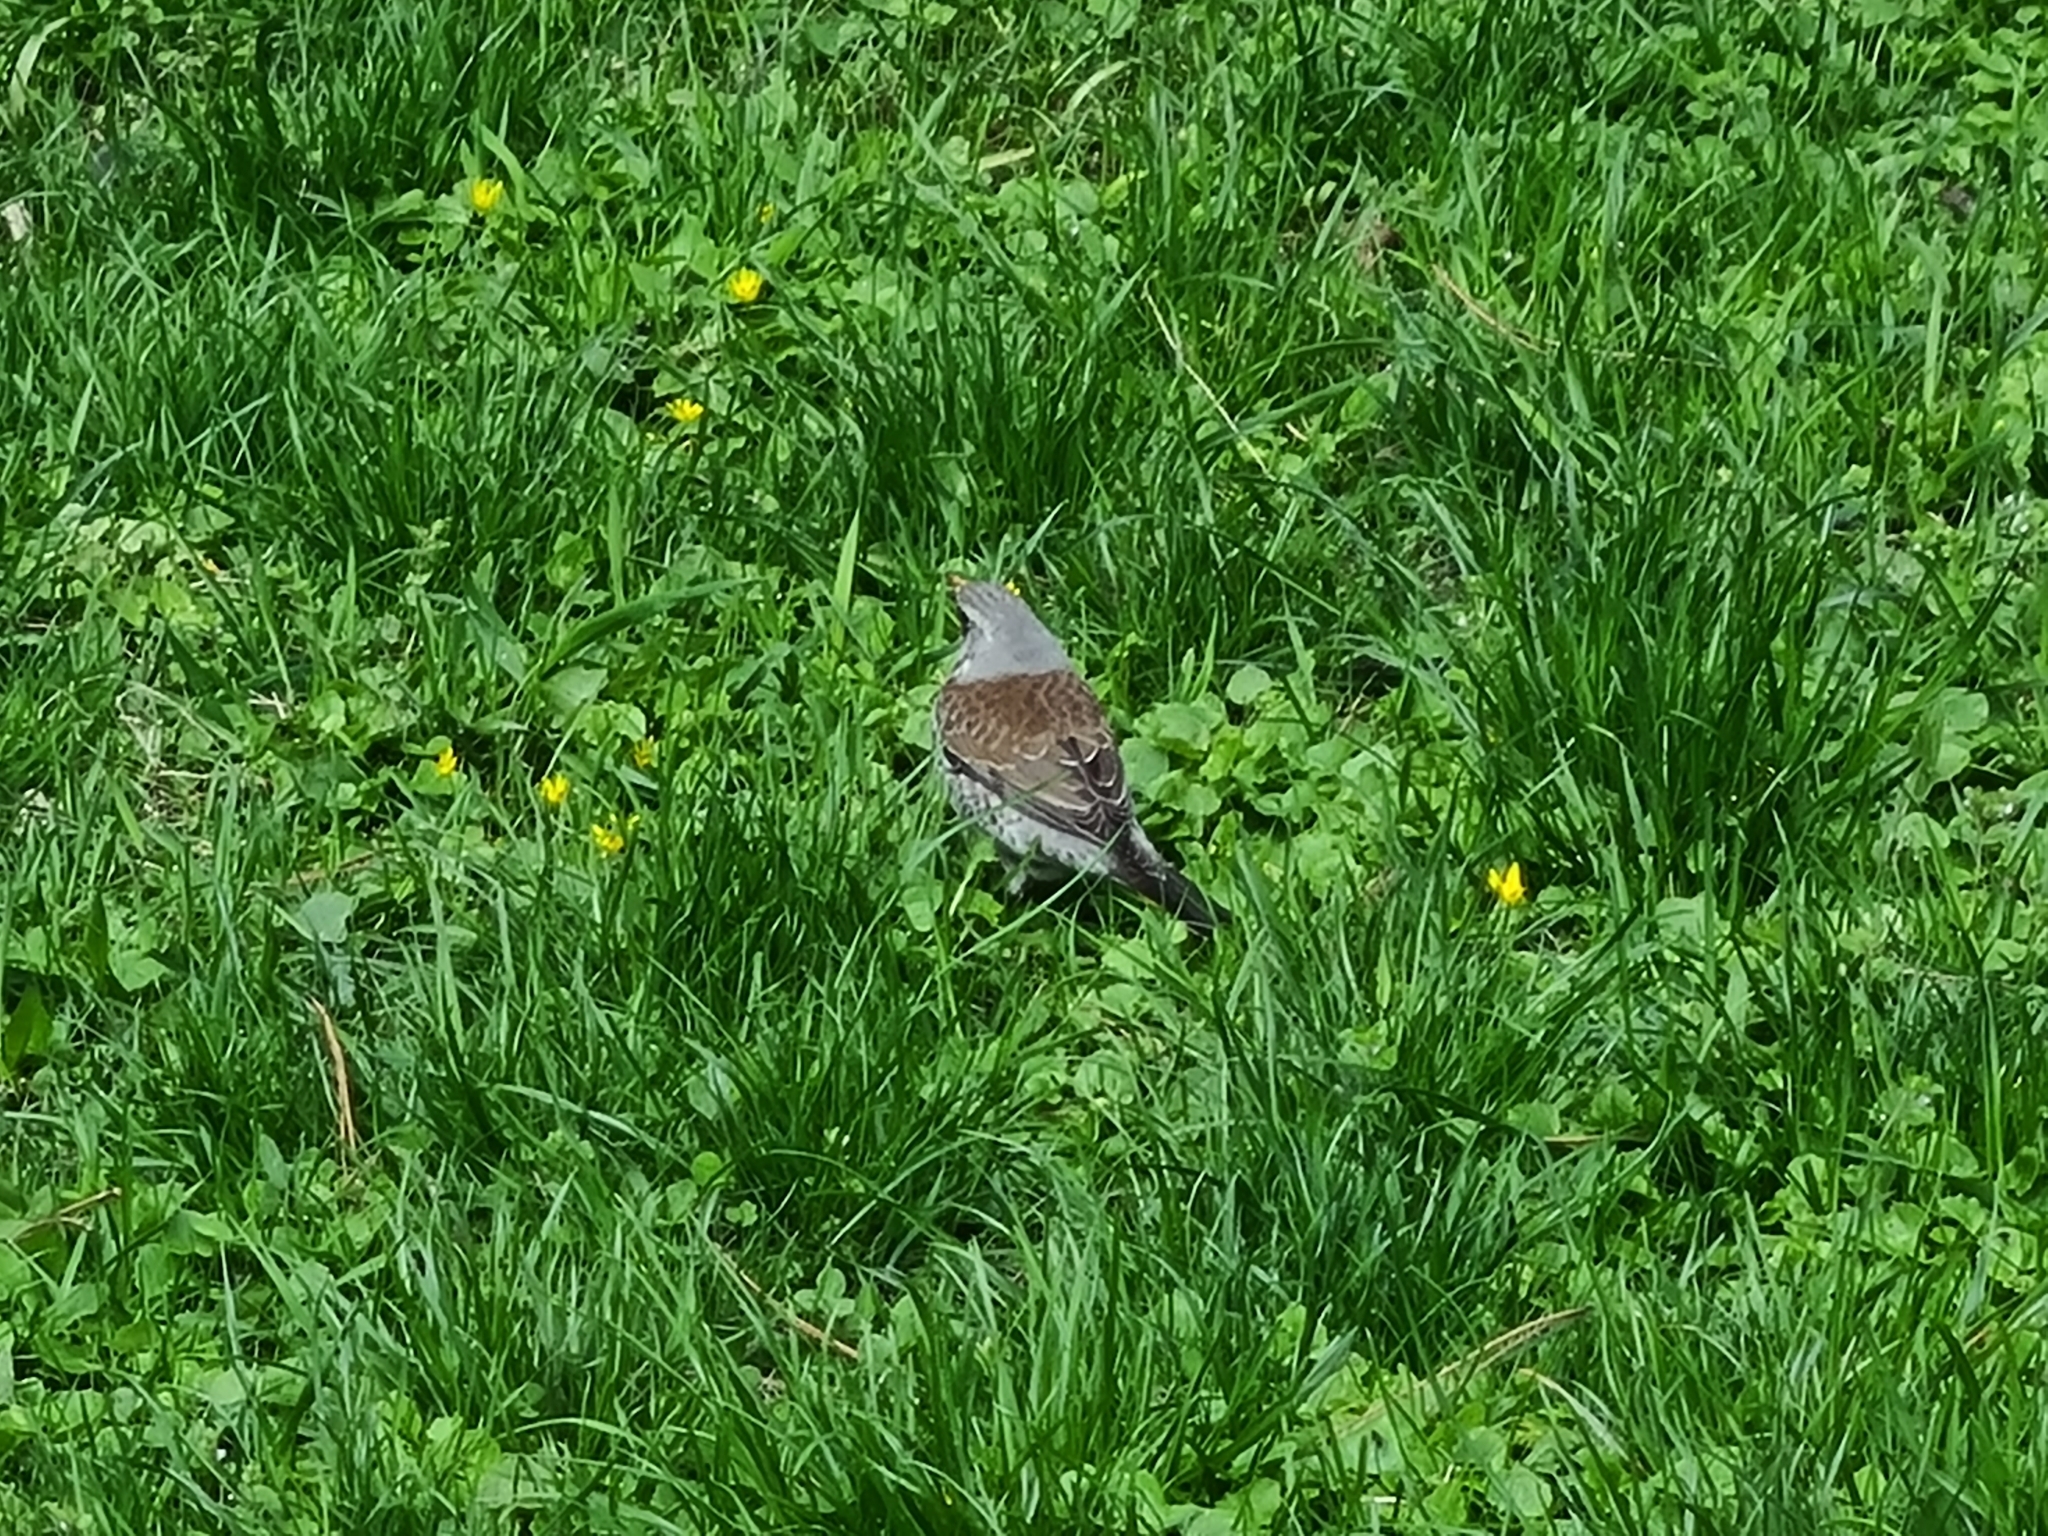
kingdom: Animalia
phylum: Chordata
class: Aves
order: Passeriformes
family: Turdidae
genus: Turdus
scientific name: Turdus pilaris
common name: Fieldfare
